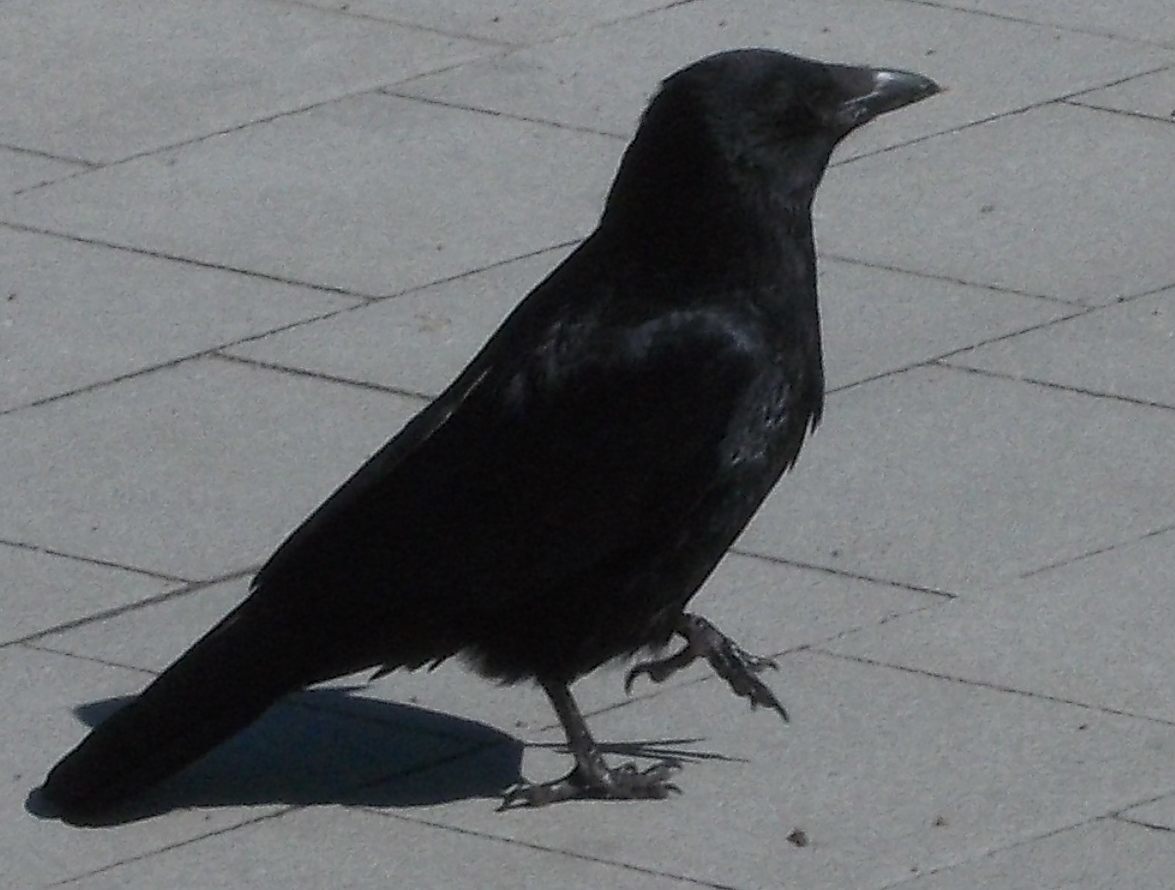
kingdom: Animalia
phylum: Chordata
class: Aves
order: Passeriformes
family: Corvidae
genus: Corvus
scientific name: Corvus corone
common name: Carrion crow
